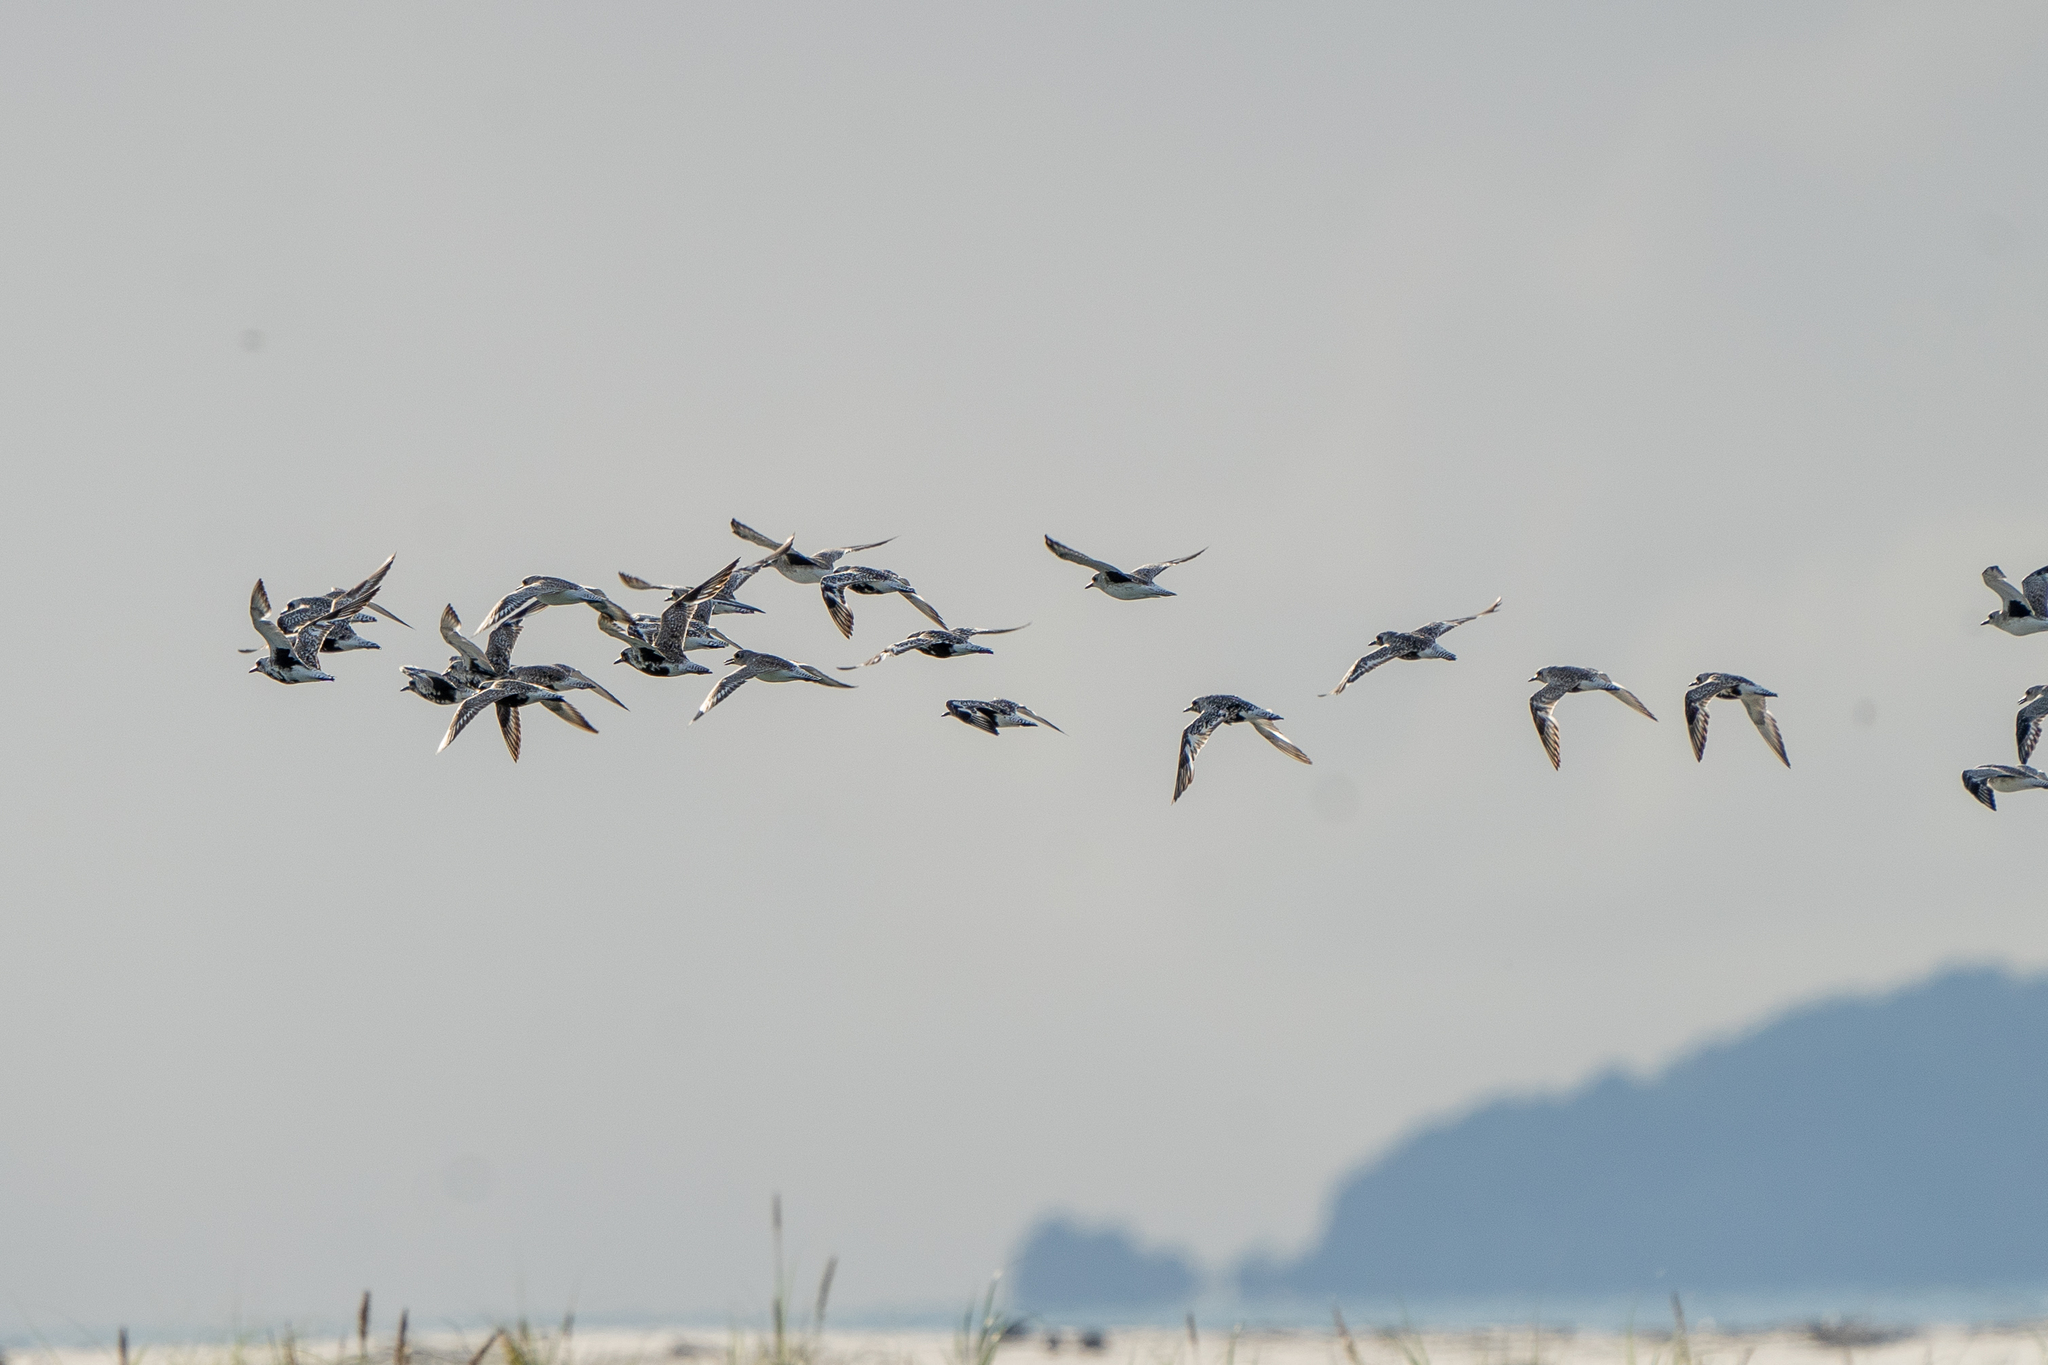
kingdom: Animalia
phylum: Chordata
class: Aves
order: Charadriiformes
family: Charadriidae
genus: Pluvialis
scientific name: Pluvialis squatarola
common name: Grey plover
